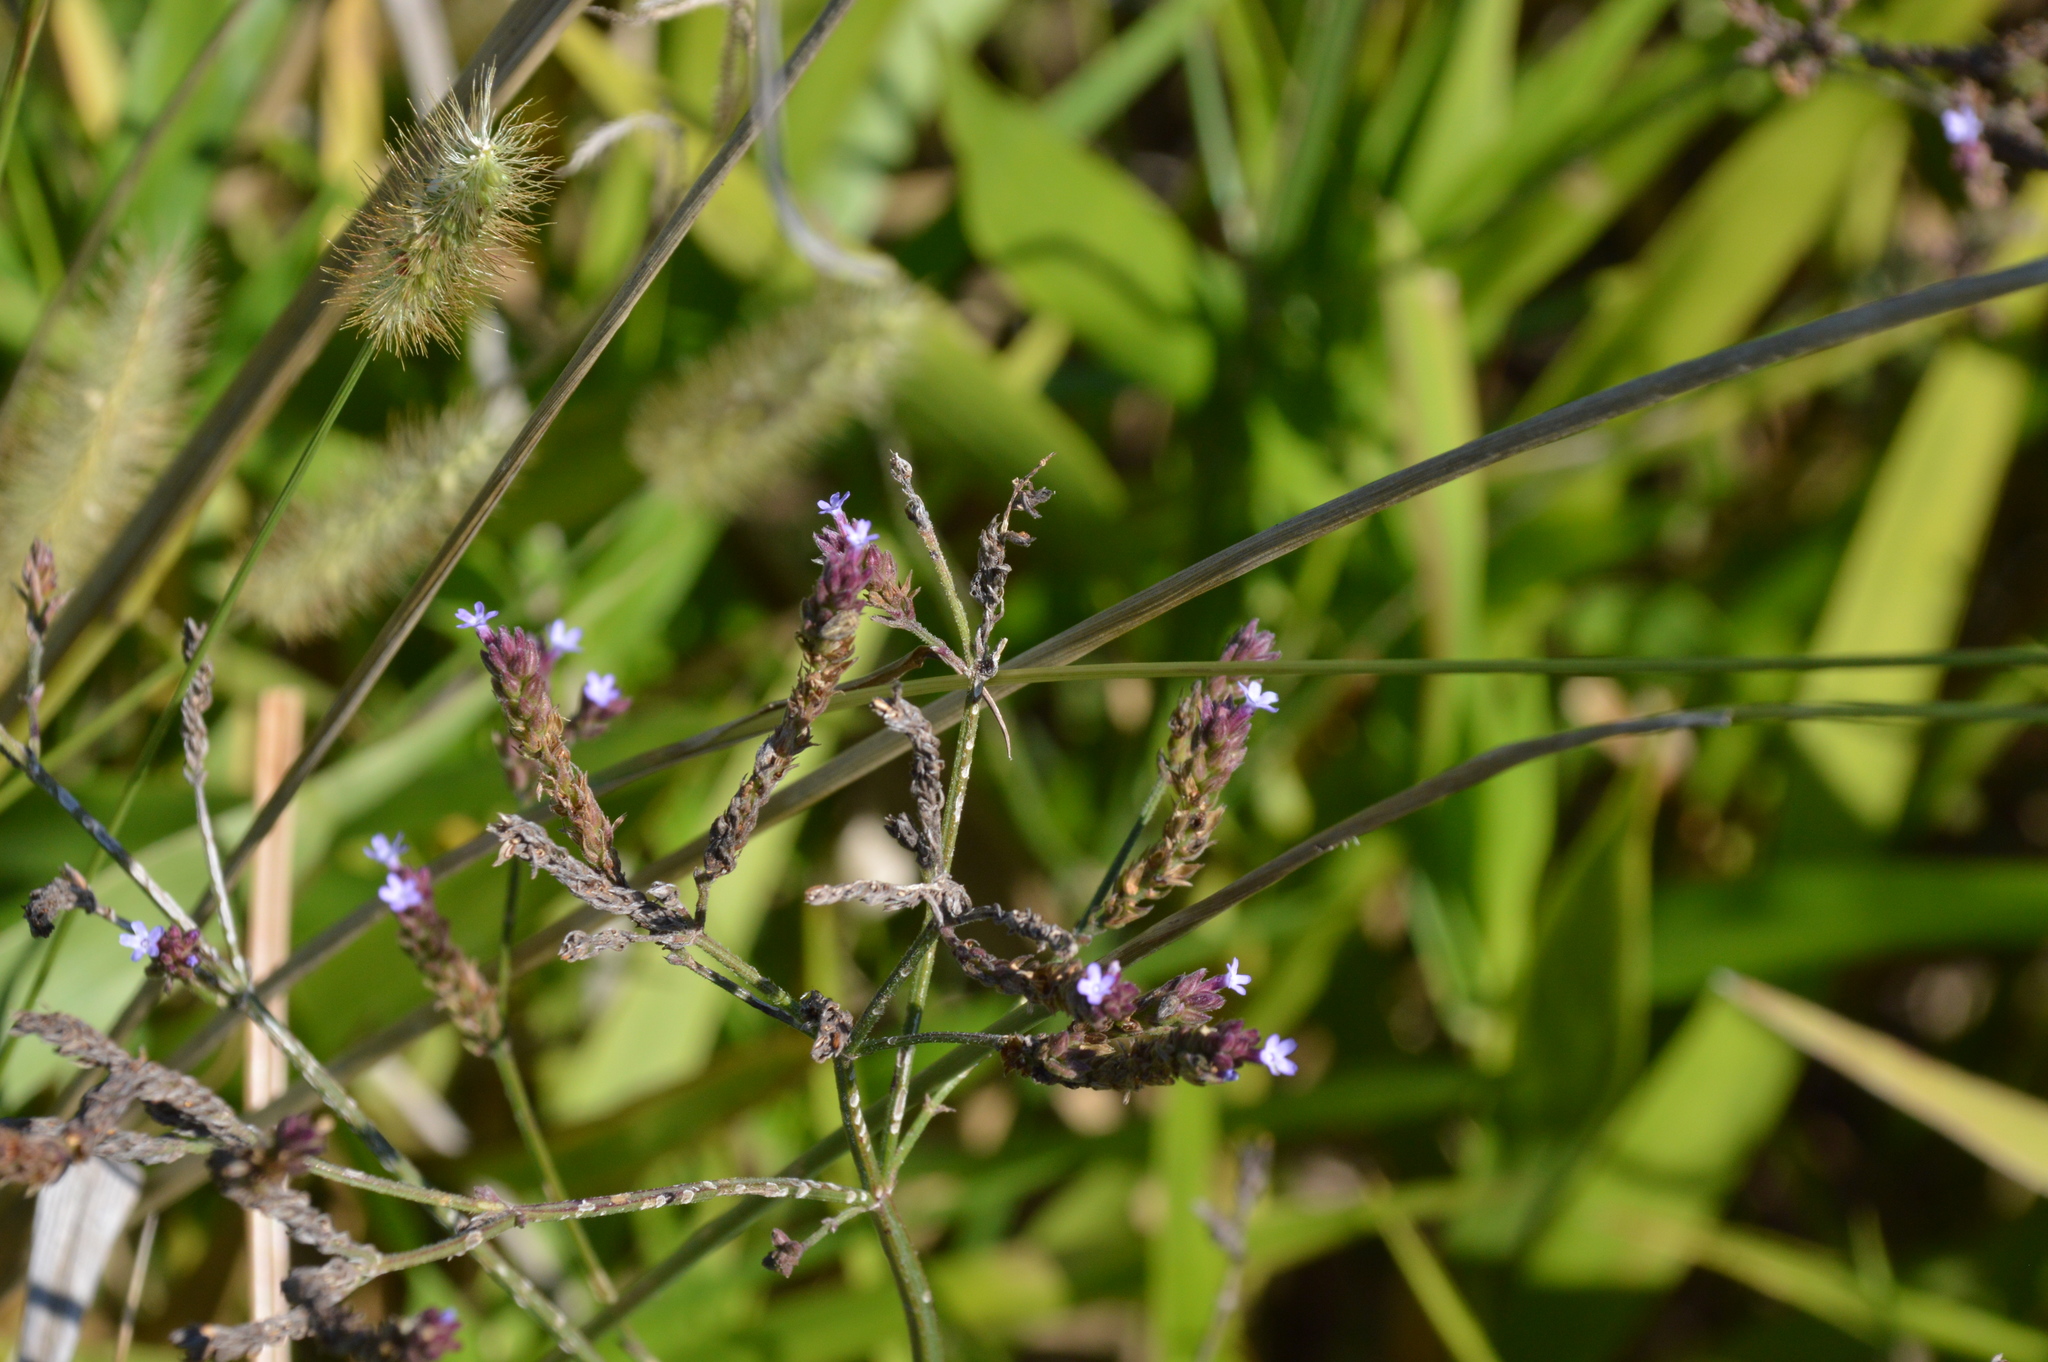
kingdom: Plantae
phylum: Tracheophyta
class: Magnoliopsida
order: Lamiales
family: Verbenaceae
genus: Verbena
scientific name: Verbena brasiliensis
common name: Brazilian vervain
